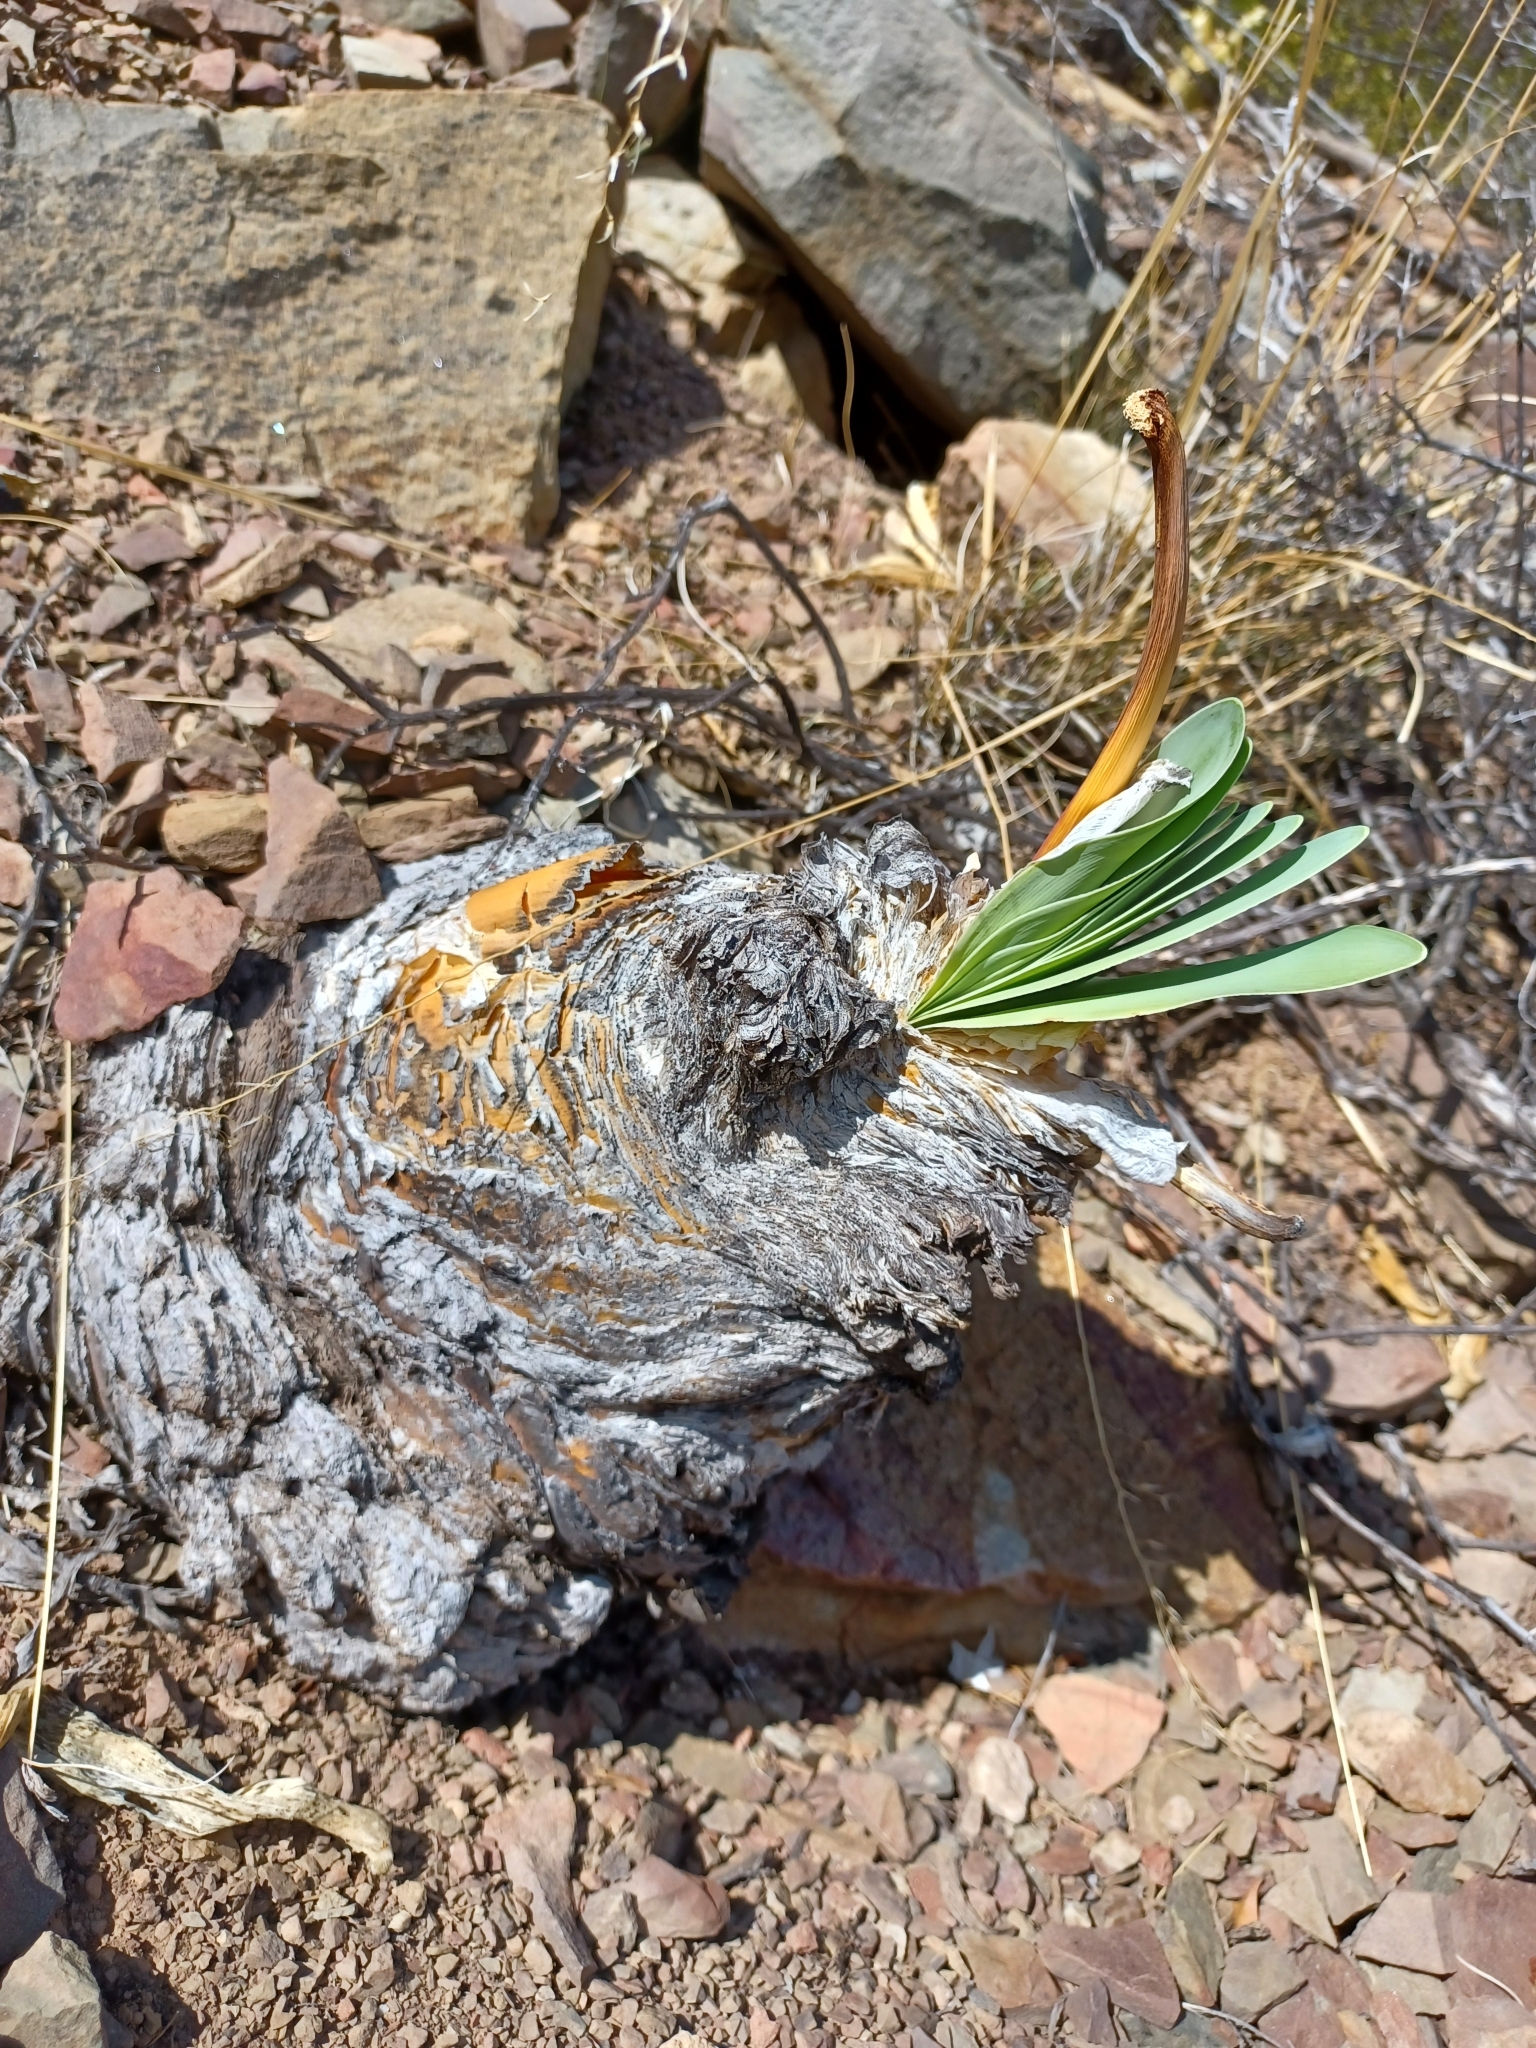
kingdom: Plantae
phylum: Tracheophyta
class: Liliopsida
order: Asparagales
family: Amaryllidaceae
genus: Boophone
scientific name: Boophone disticha
